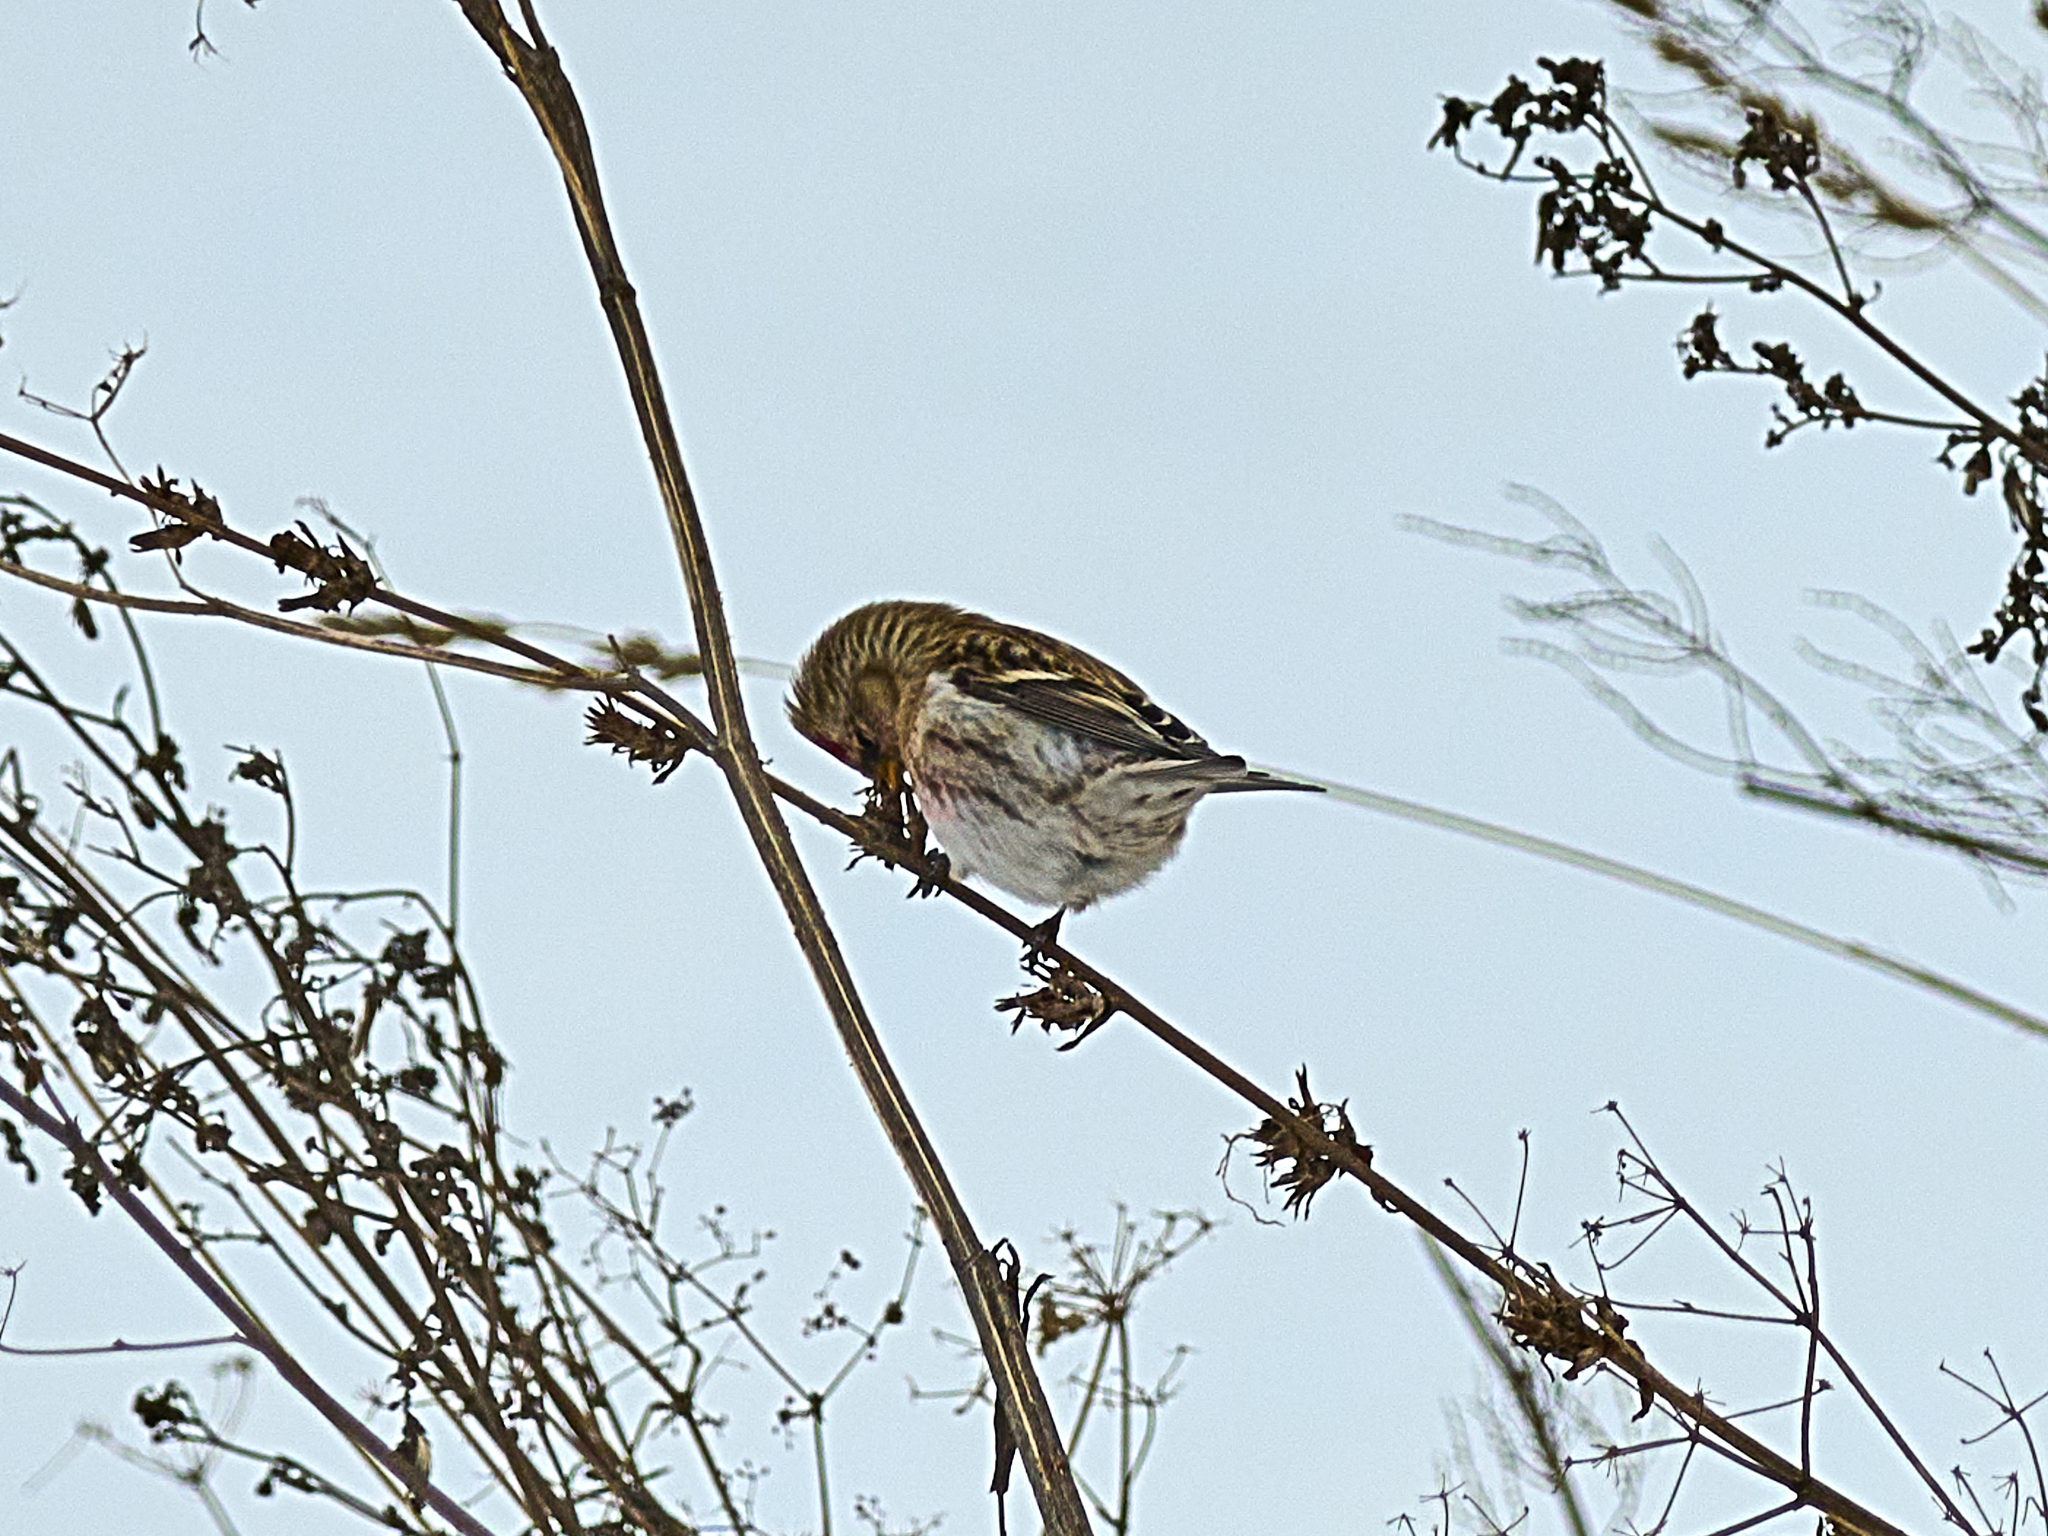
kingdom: Animalia
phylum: Chordata
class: Aves
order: Passeriformes
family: Fringillidae
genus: Acanthis
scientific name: Acanthis flammea
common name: Common redpoll
